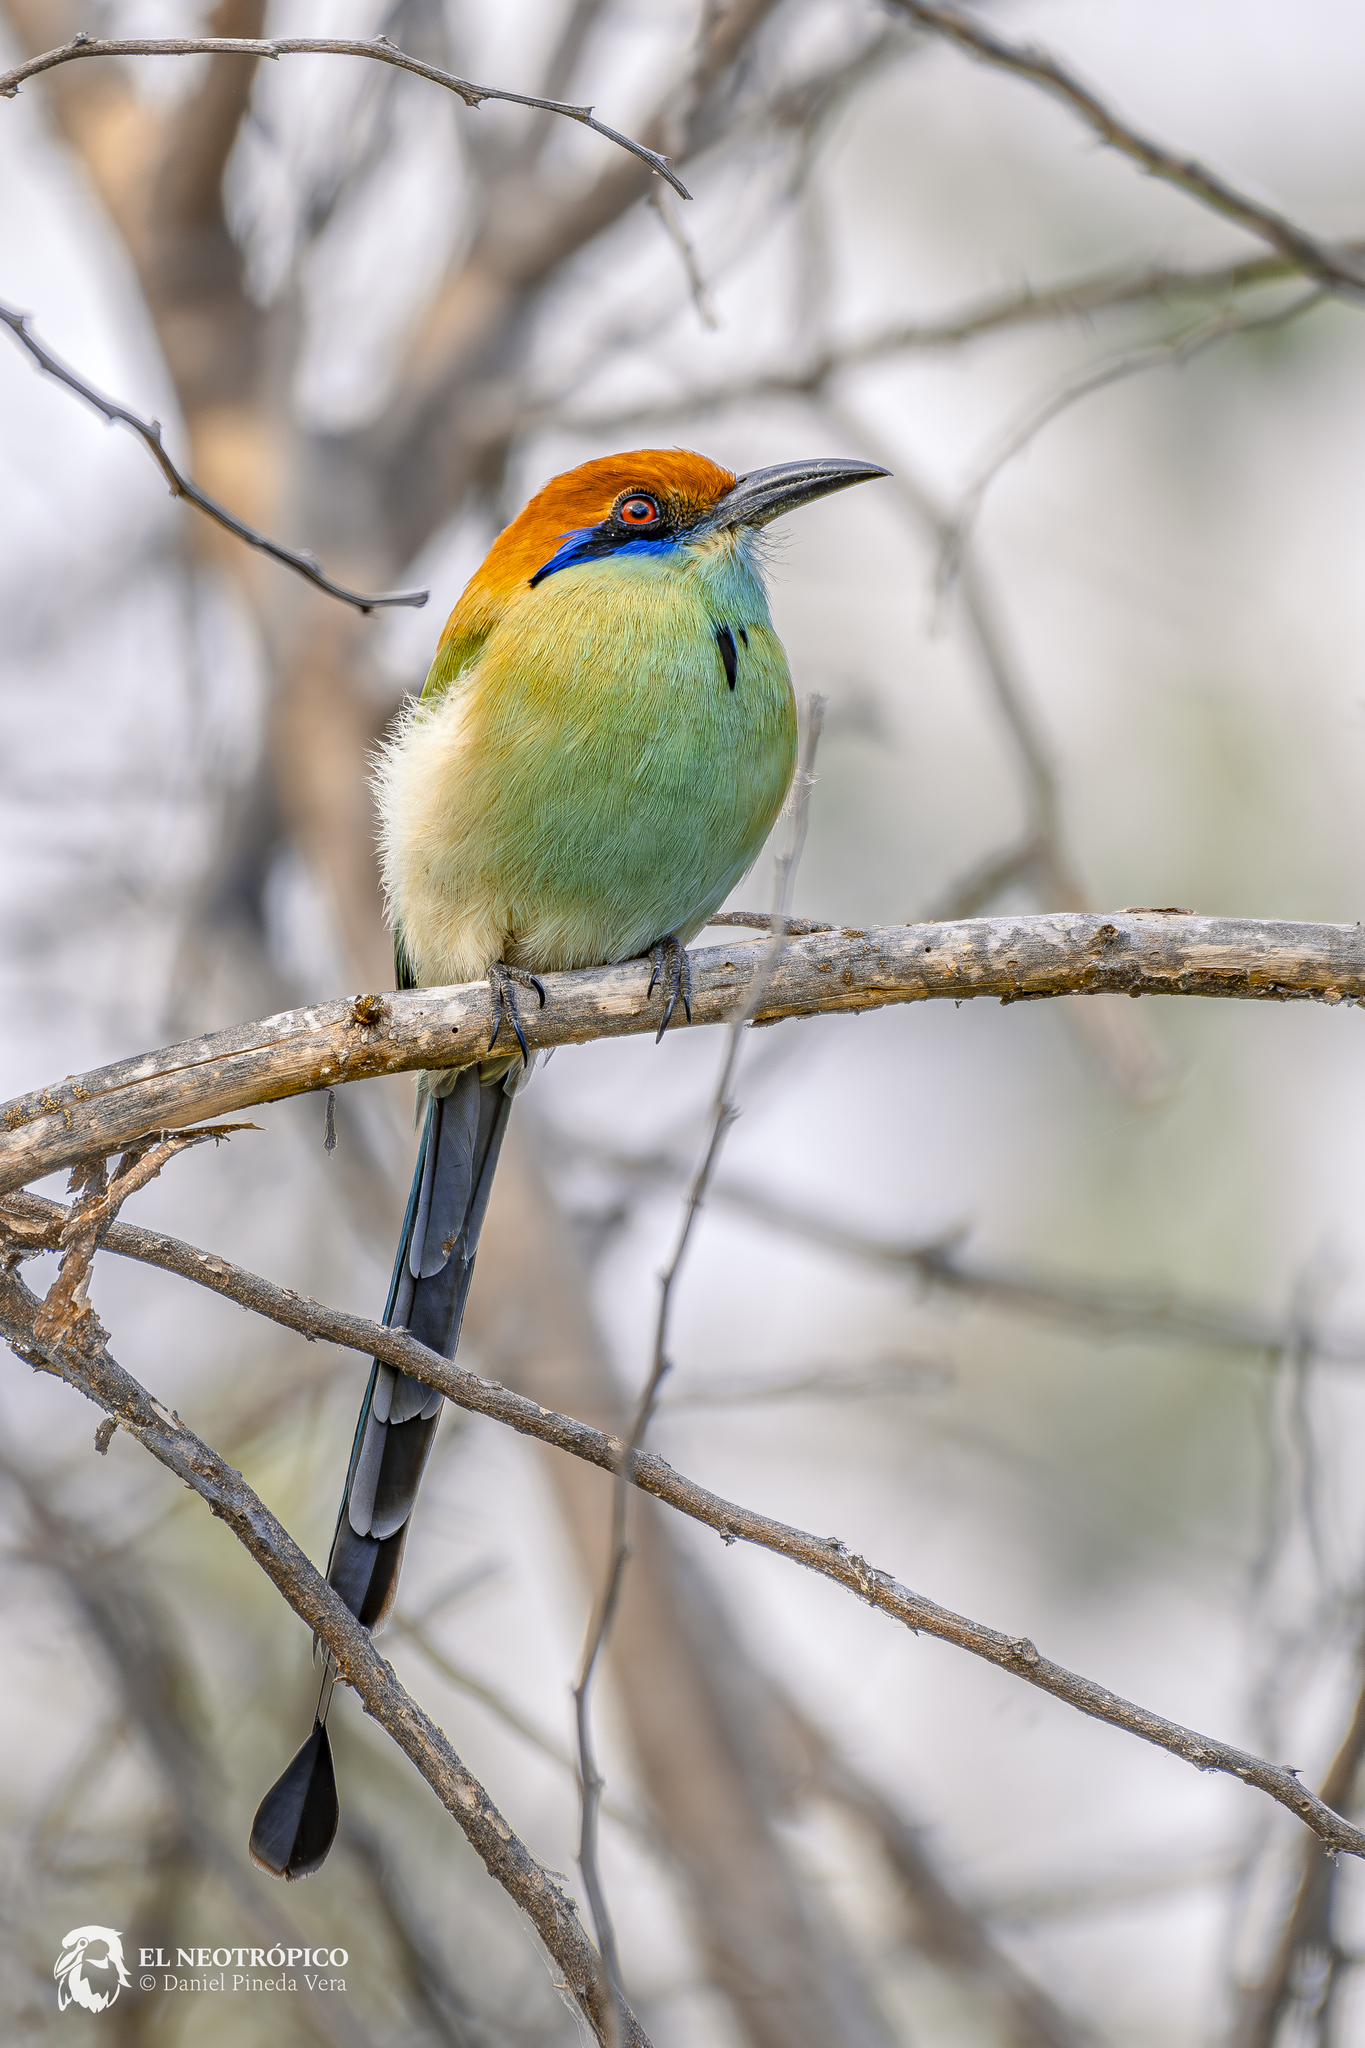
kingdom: Animalia
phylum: Chordata
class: Aves
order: Coraciiformes
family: Momotidae
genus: Momotus
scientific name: Momotus mexicanus
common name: Russet-crowned motmot
